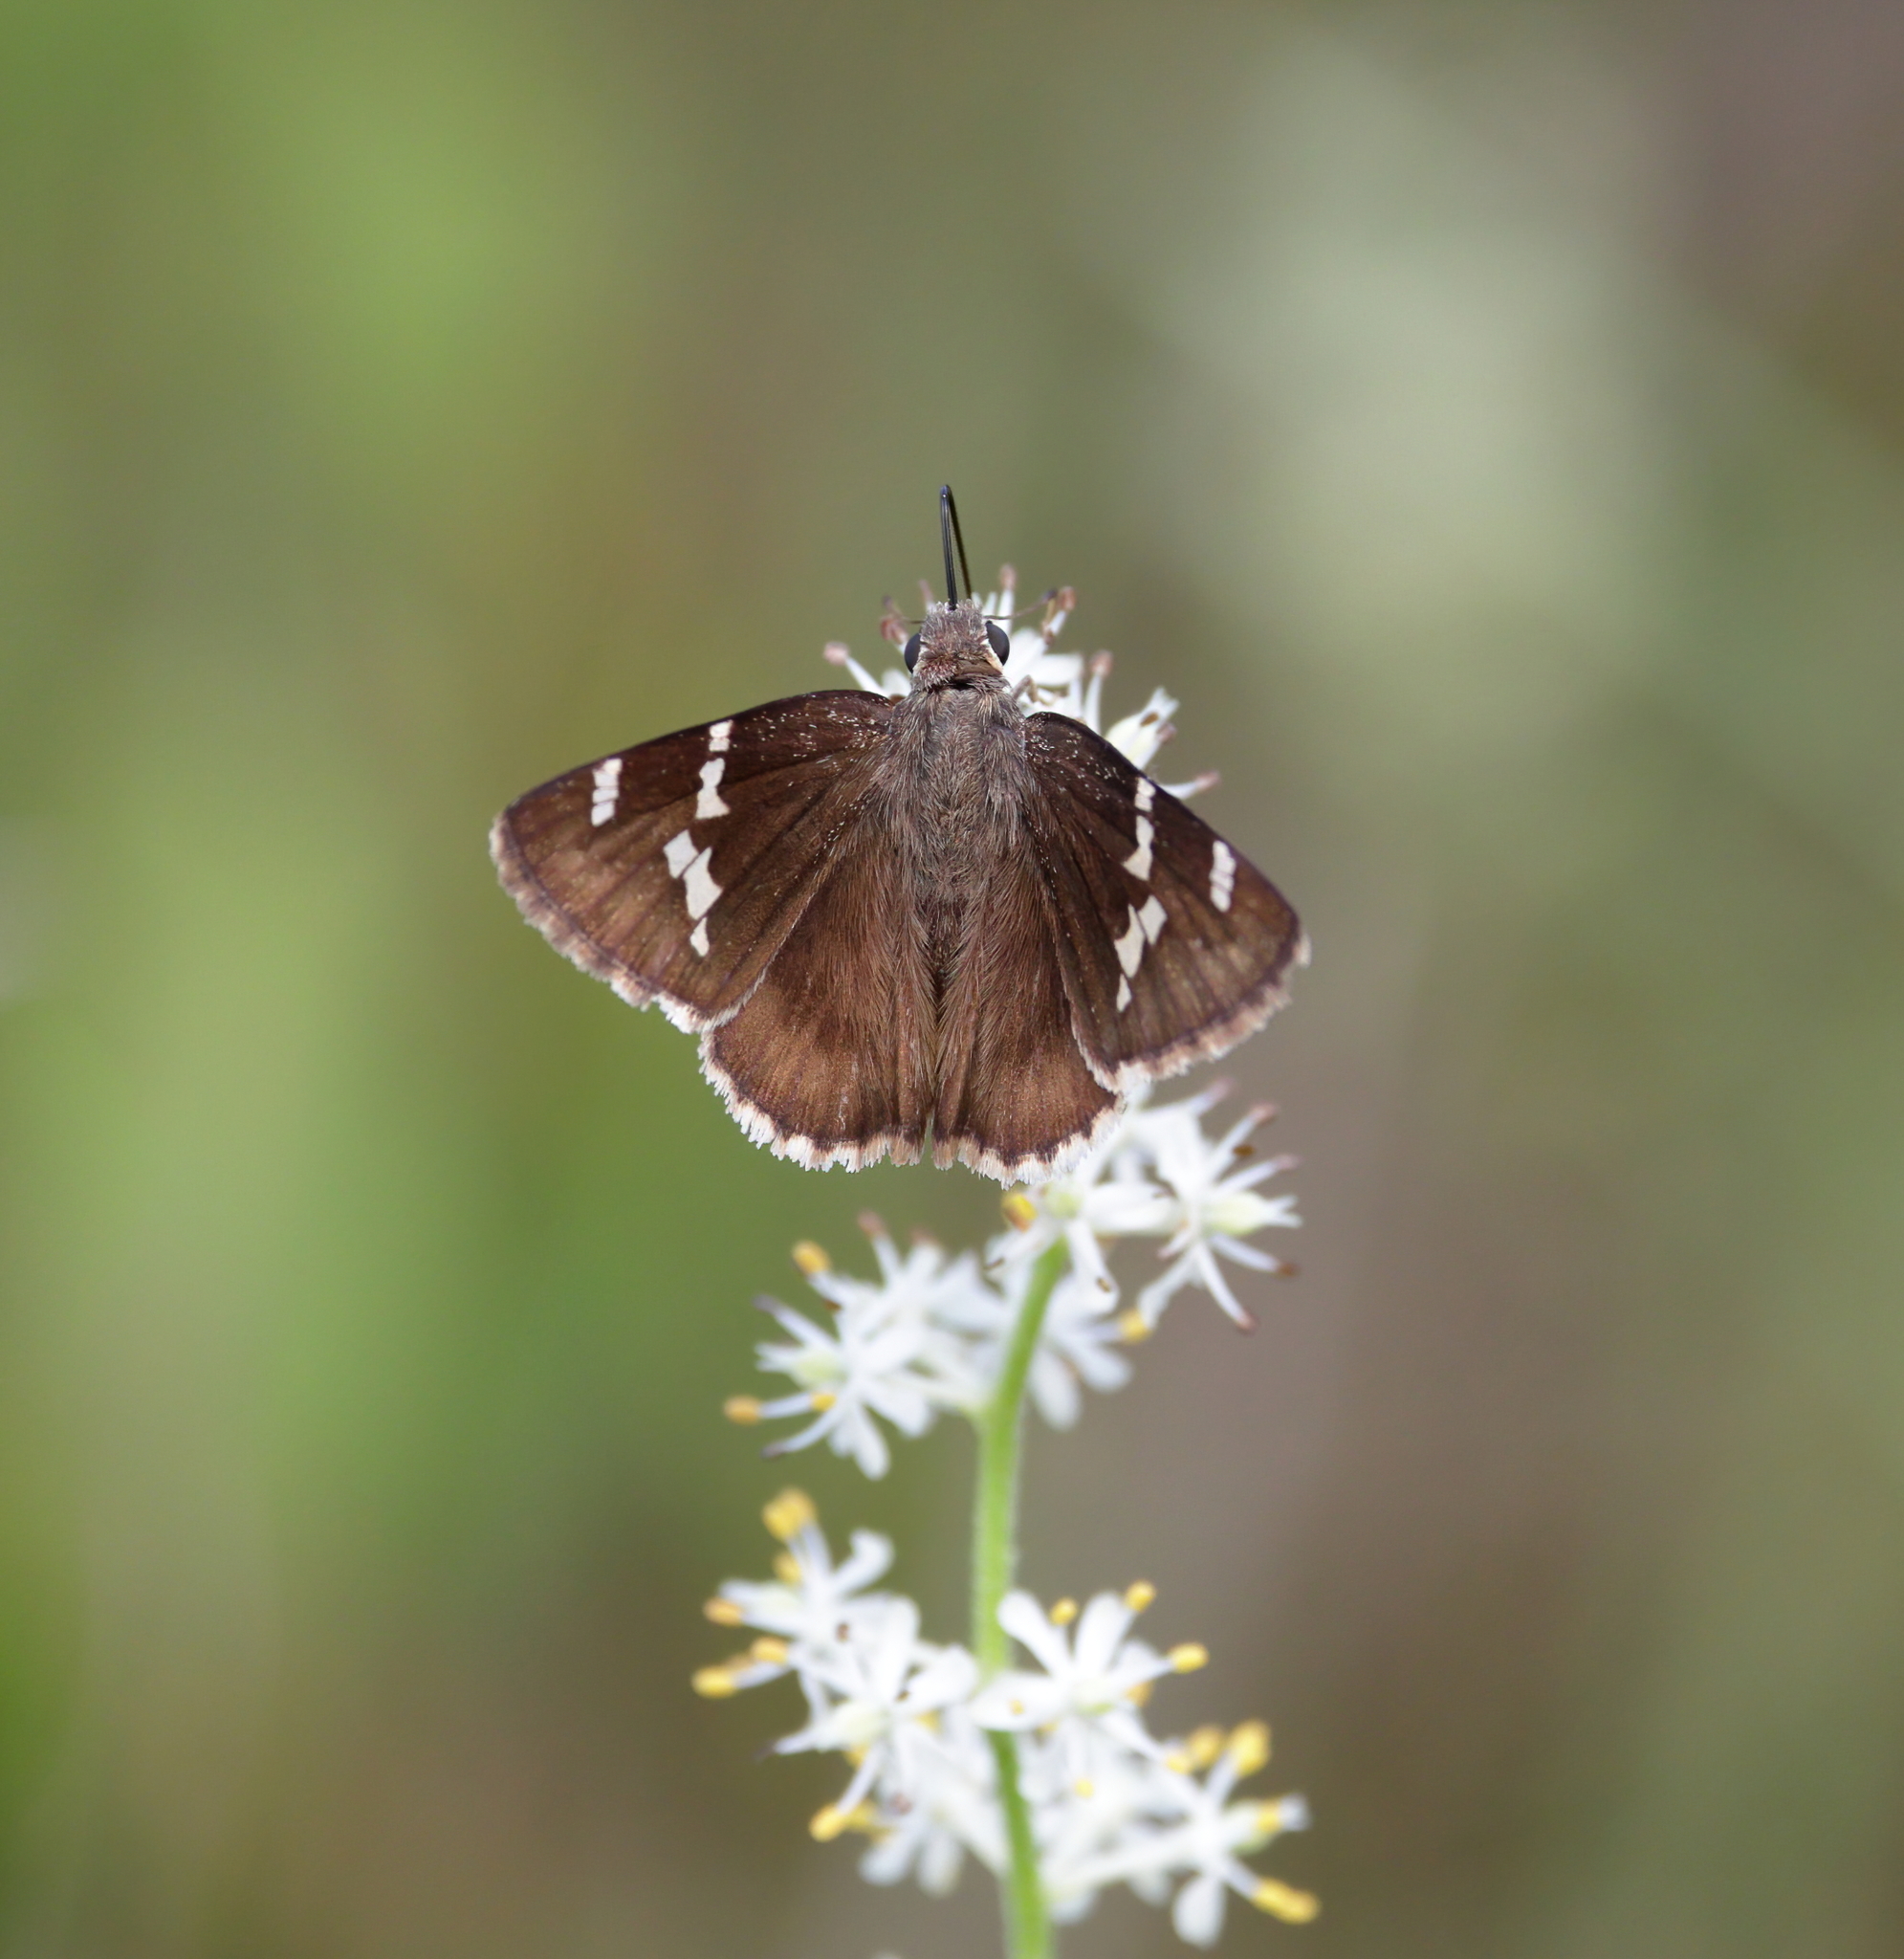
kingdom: Animalia
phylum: Arthropoda
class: Insecta
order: Lepidoptera
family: Hesperiidae
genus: Thorybes
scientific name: Thorybes daunus
